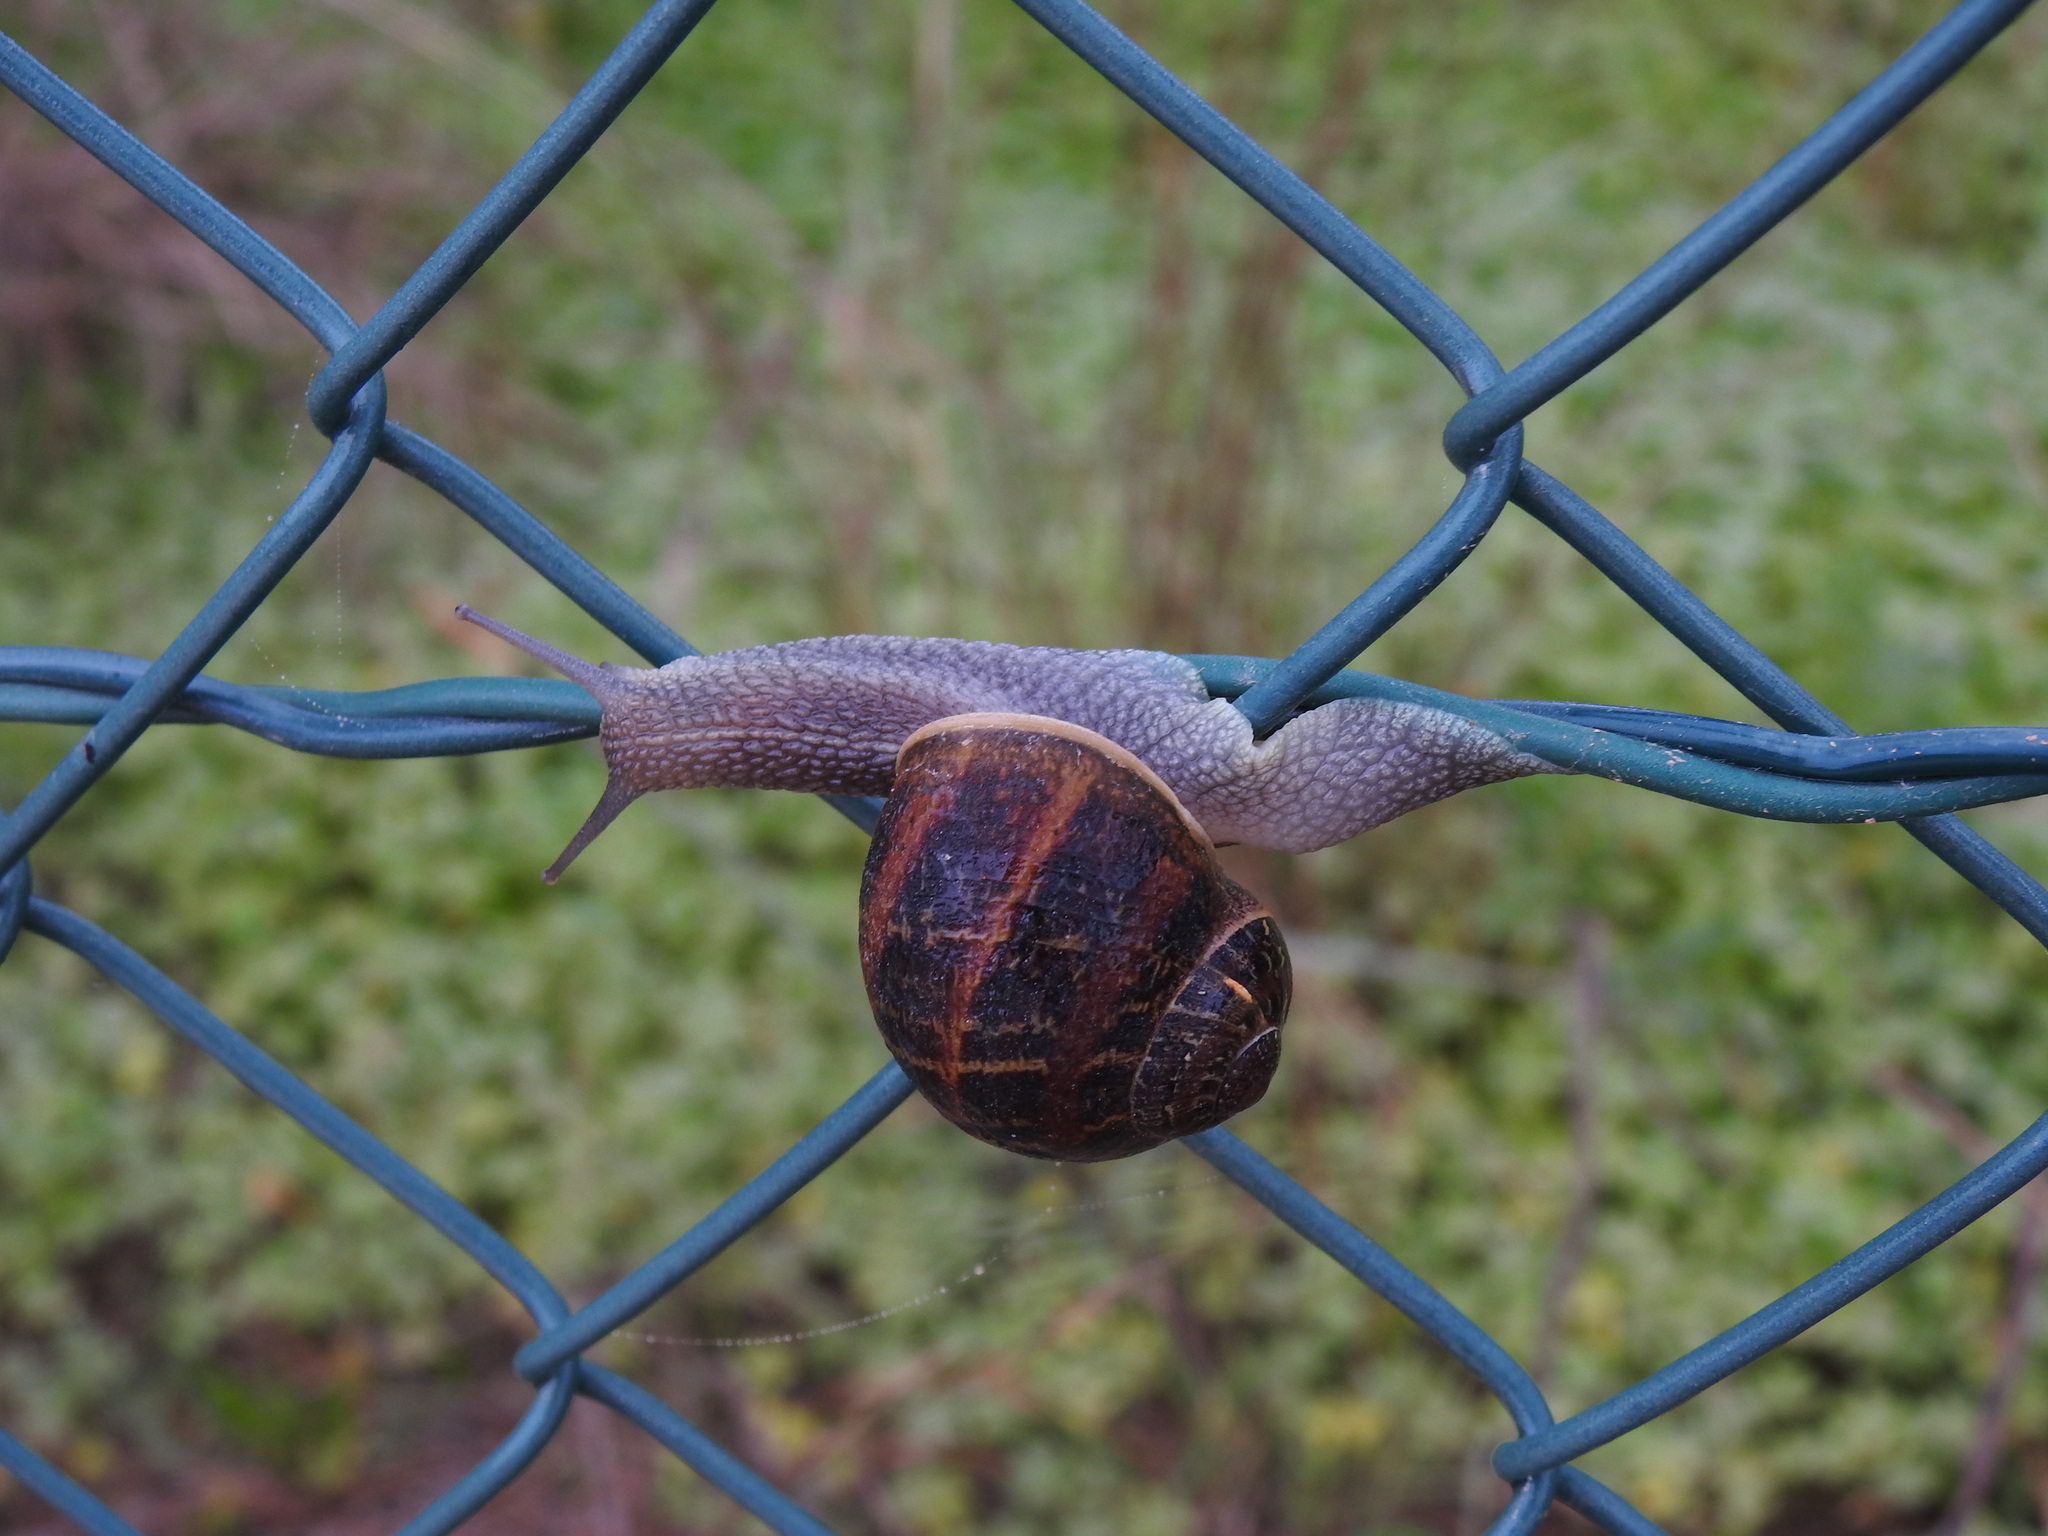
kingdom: Animalia
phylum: Mollusca
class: Gastropoda
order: Stylommatophora
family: Helicidae
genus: Cornu
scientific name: Cornu aspersum
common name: Brown garden snail
